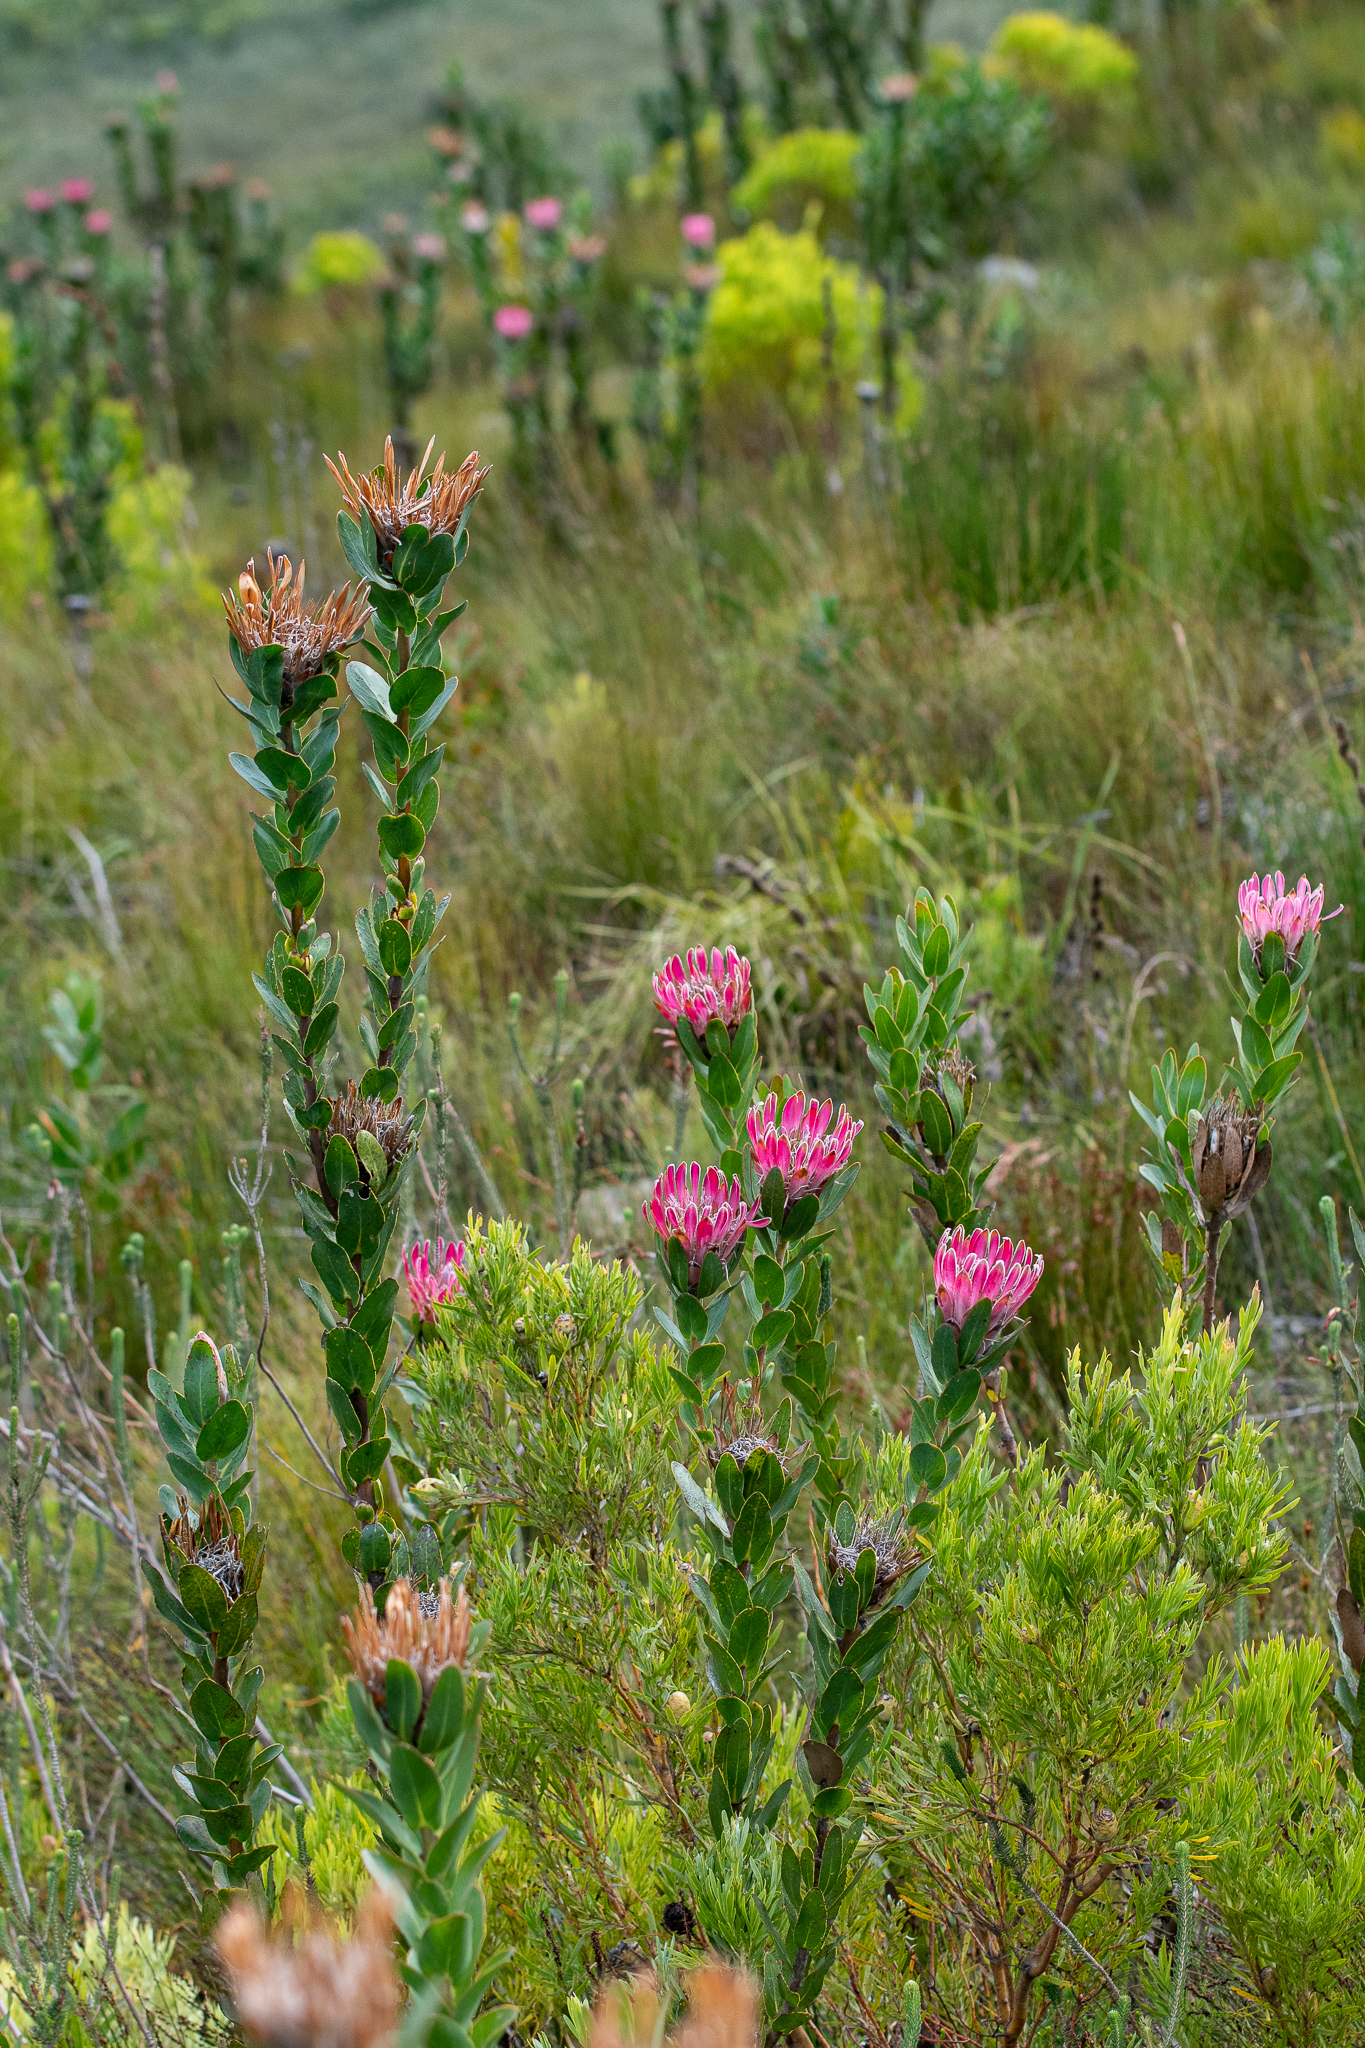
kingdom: Plantae
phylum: Tracheophyta
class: Magnoliopsida
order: Proteales
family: Proteaceae
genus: Protea
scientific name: Protea compacta
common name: Bot river protea
